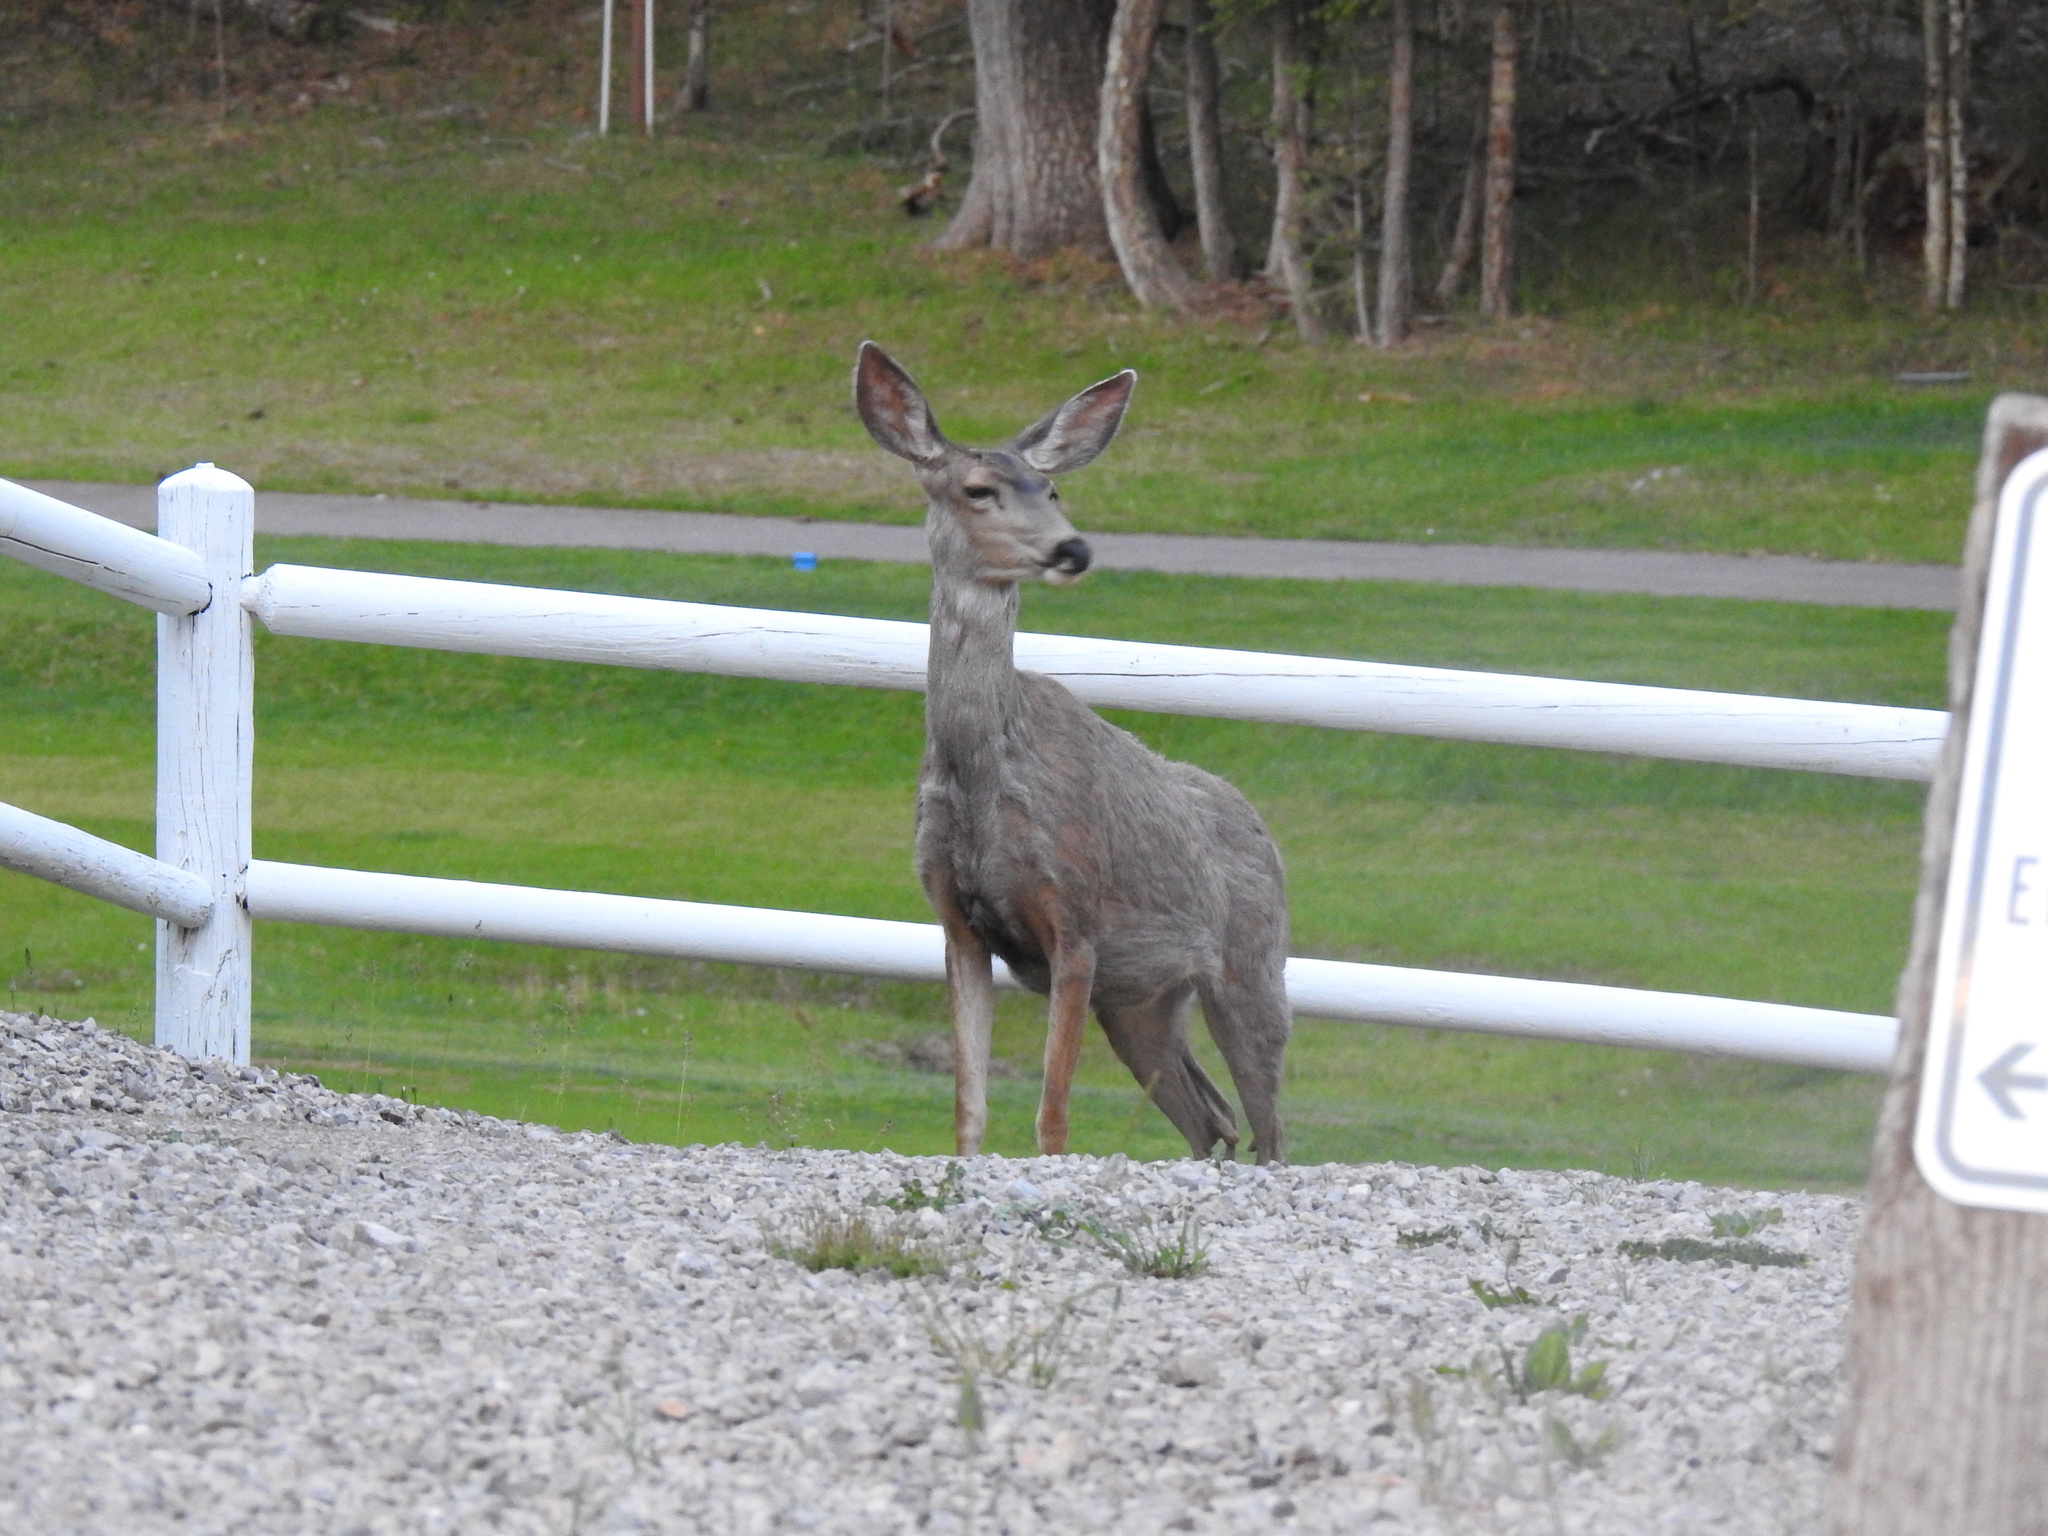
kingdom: Animalia
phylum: Chordata
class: Mammalia
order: Artiodactyla
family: Cervidae
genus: Odocoileus
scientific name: Odocoileus hemionus
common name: Mule deer
